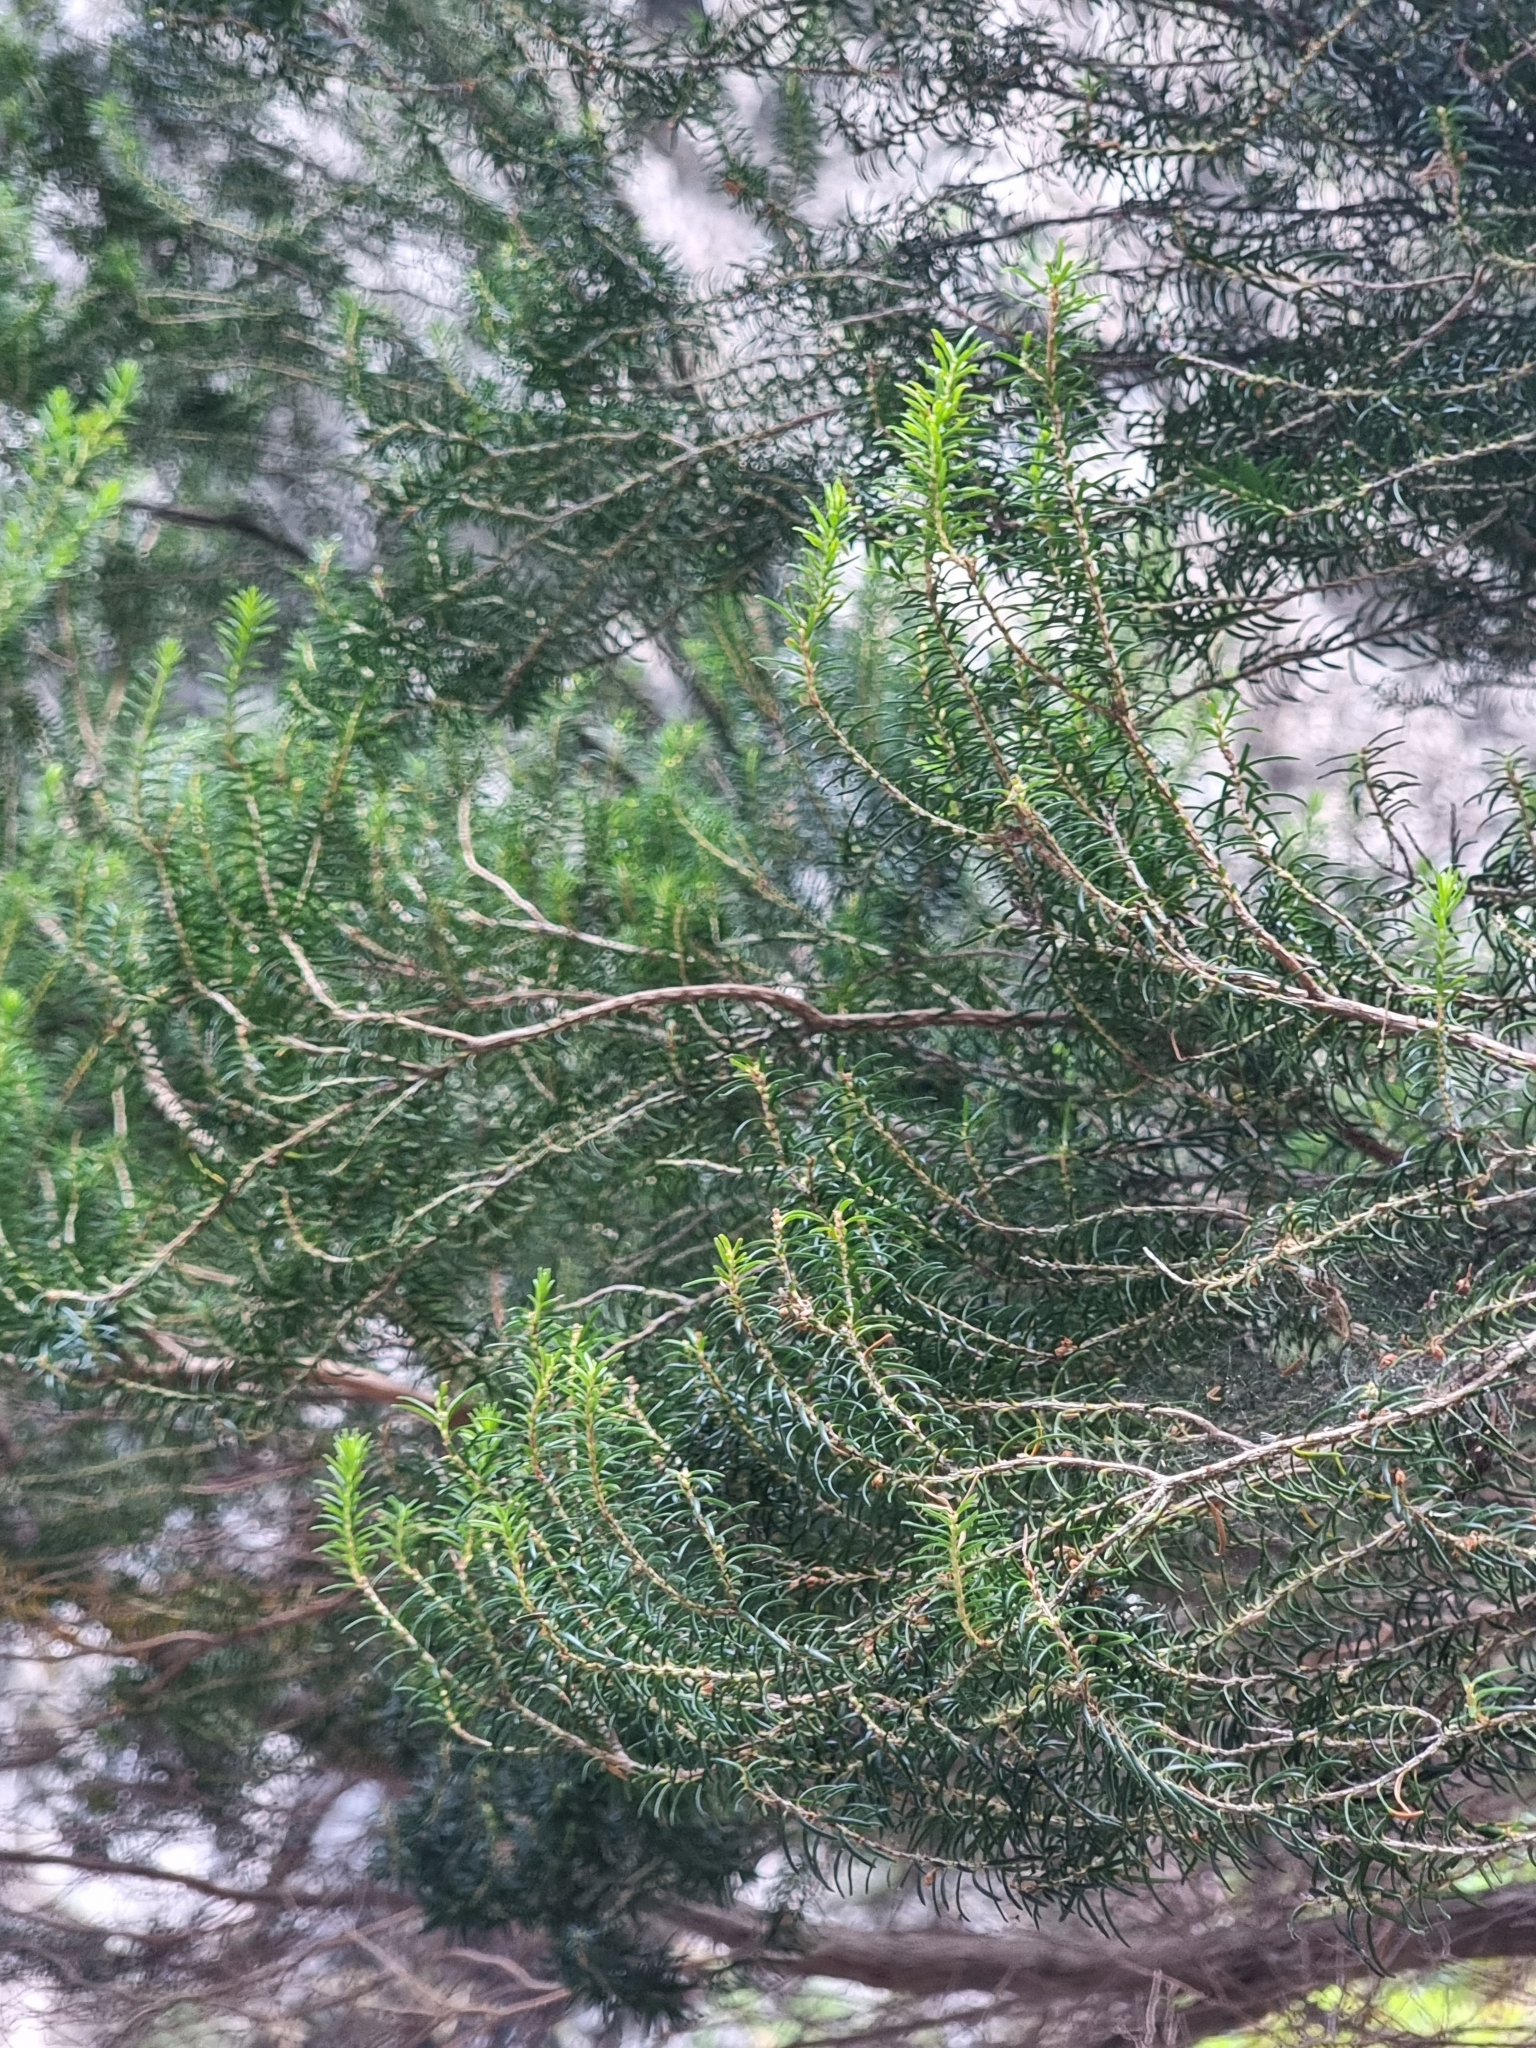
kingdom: Plantae
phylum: Tracheophyta
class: Magnoliopsida
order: Ericales
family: Ericaceae
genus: Erica
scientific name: Erica platycodon
